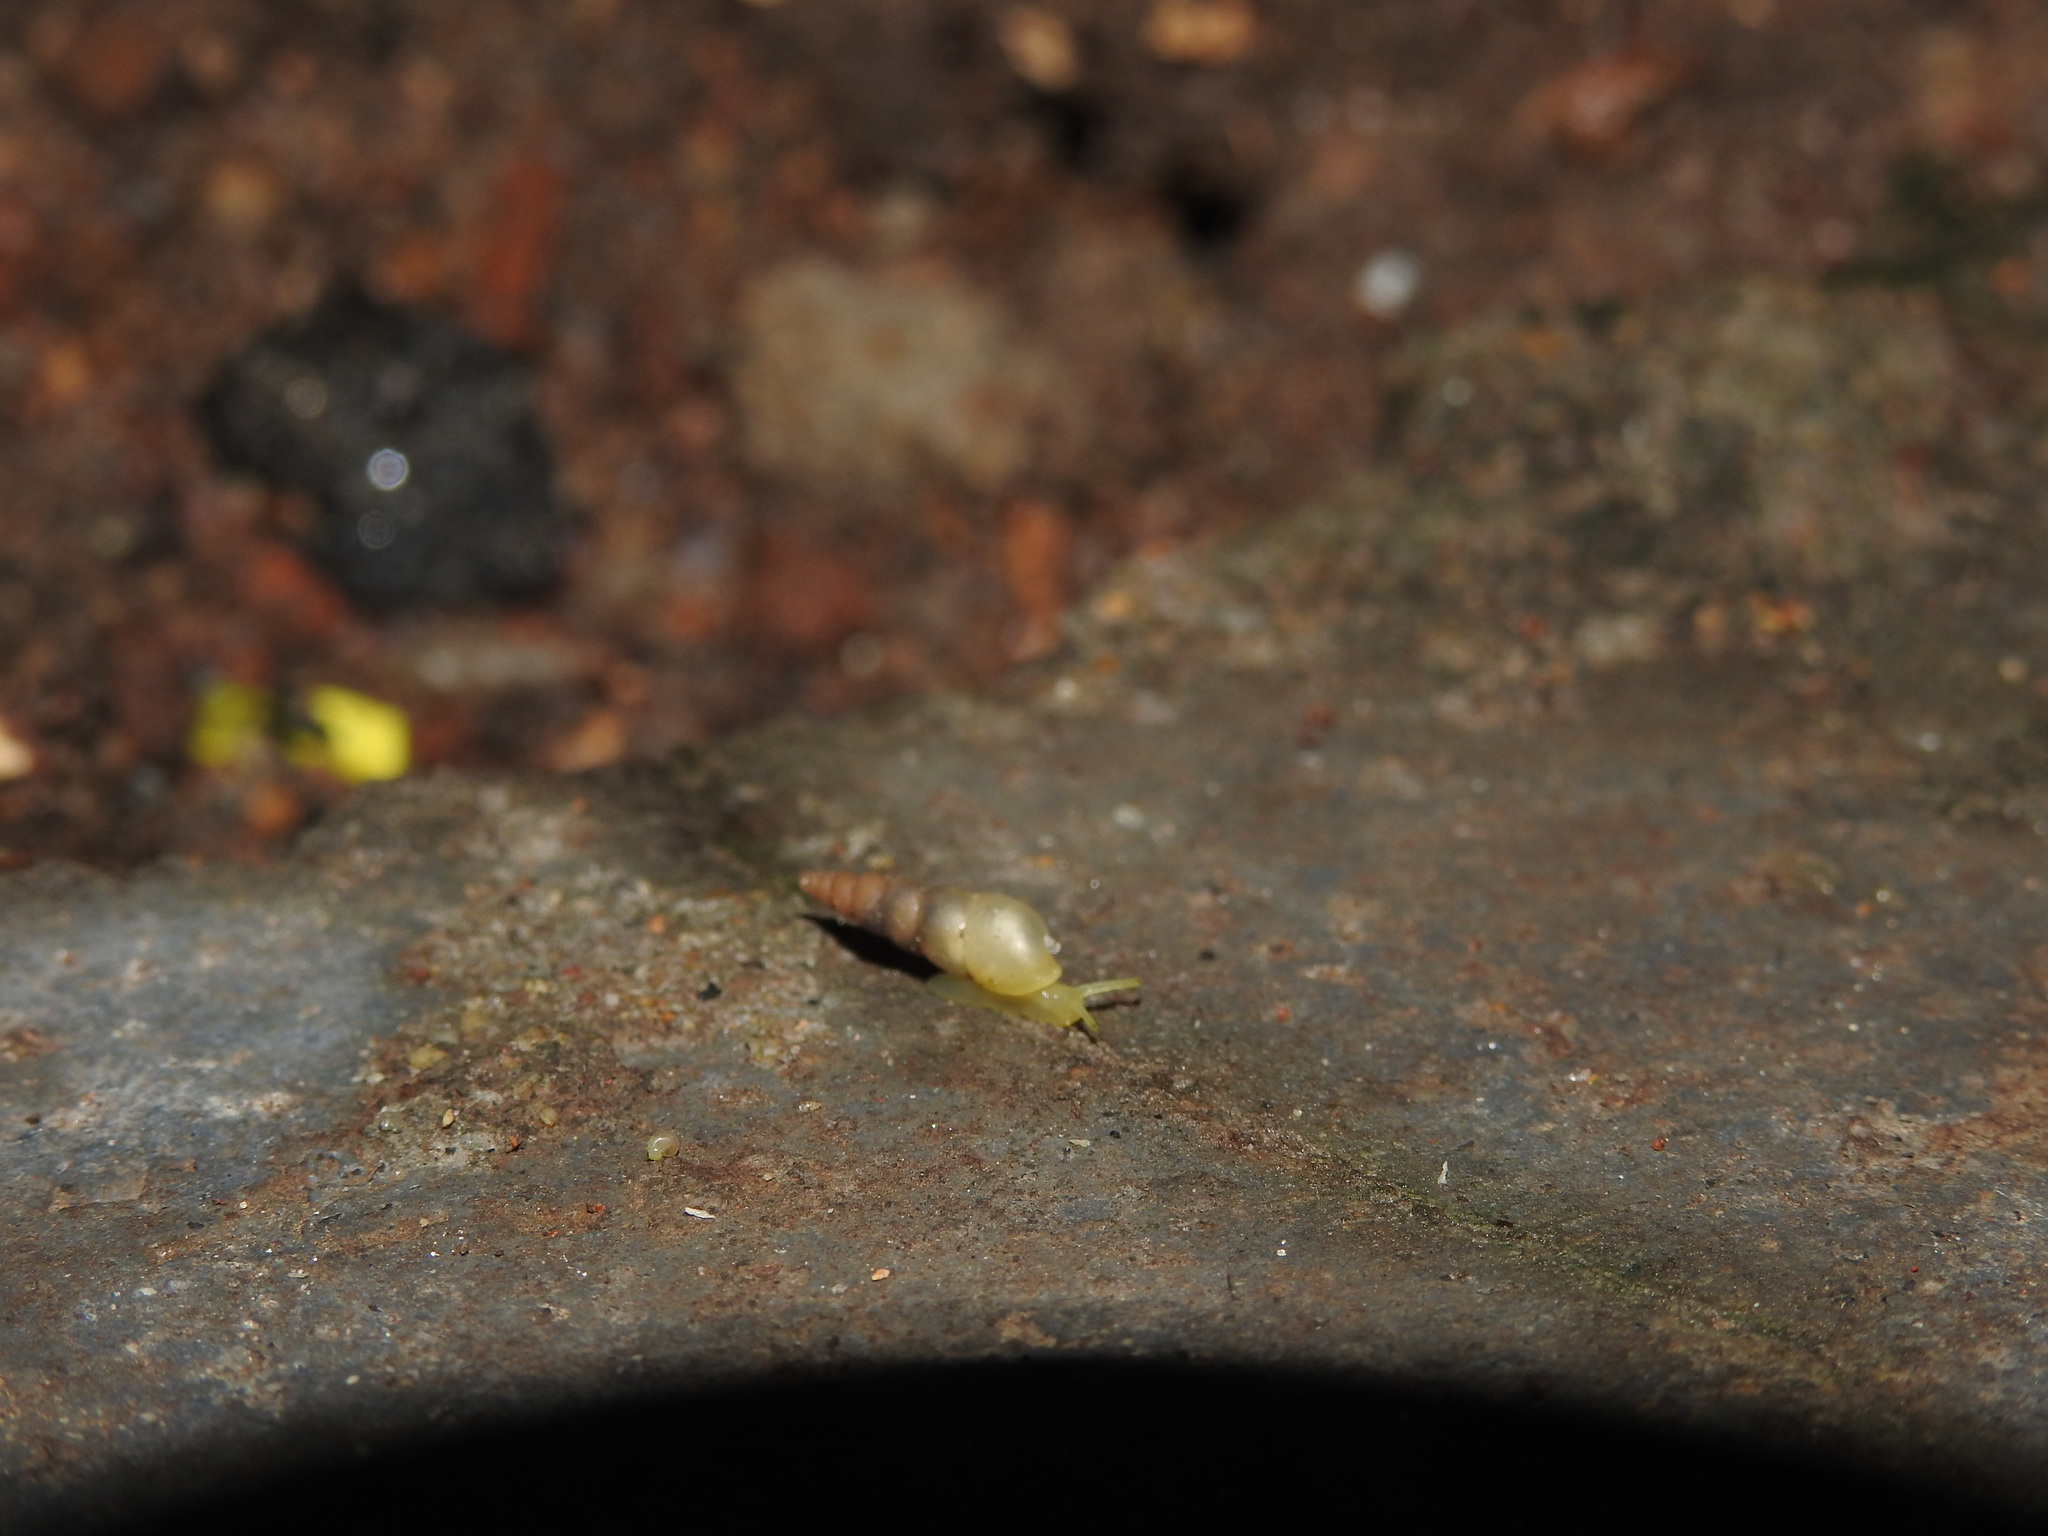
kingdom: Animalia
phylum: Mollusca
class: Gastropoda
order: Stylommatophora
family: Achatinidae
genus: Allopeas
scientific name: Allopeas gracile
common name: Graceful awlsnail
